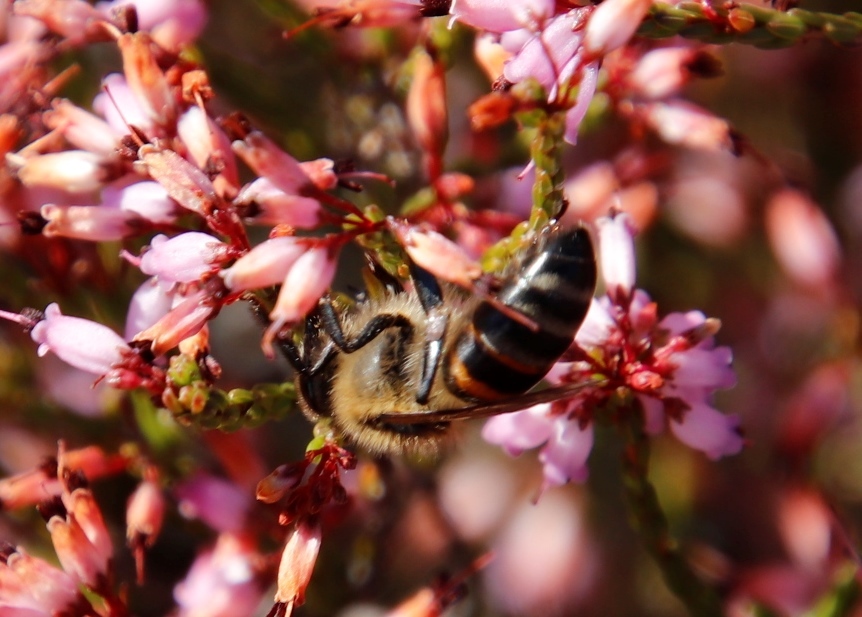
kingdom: Animalia
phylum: Arthropoda
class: Insecta
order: Hymenoptera
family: Apidae
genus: Apis
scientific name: Apis mellifera
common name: Honey bee
